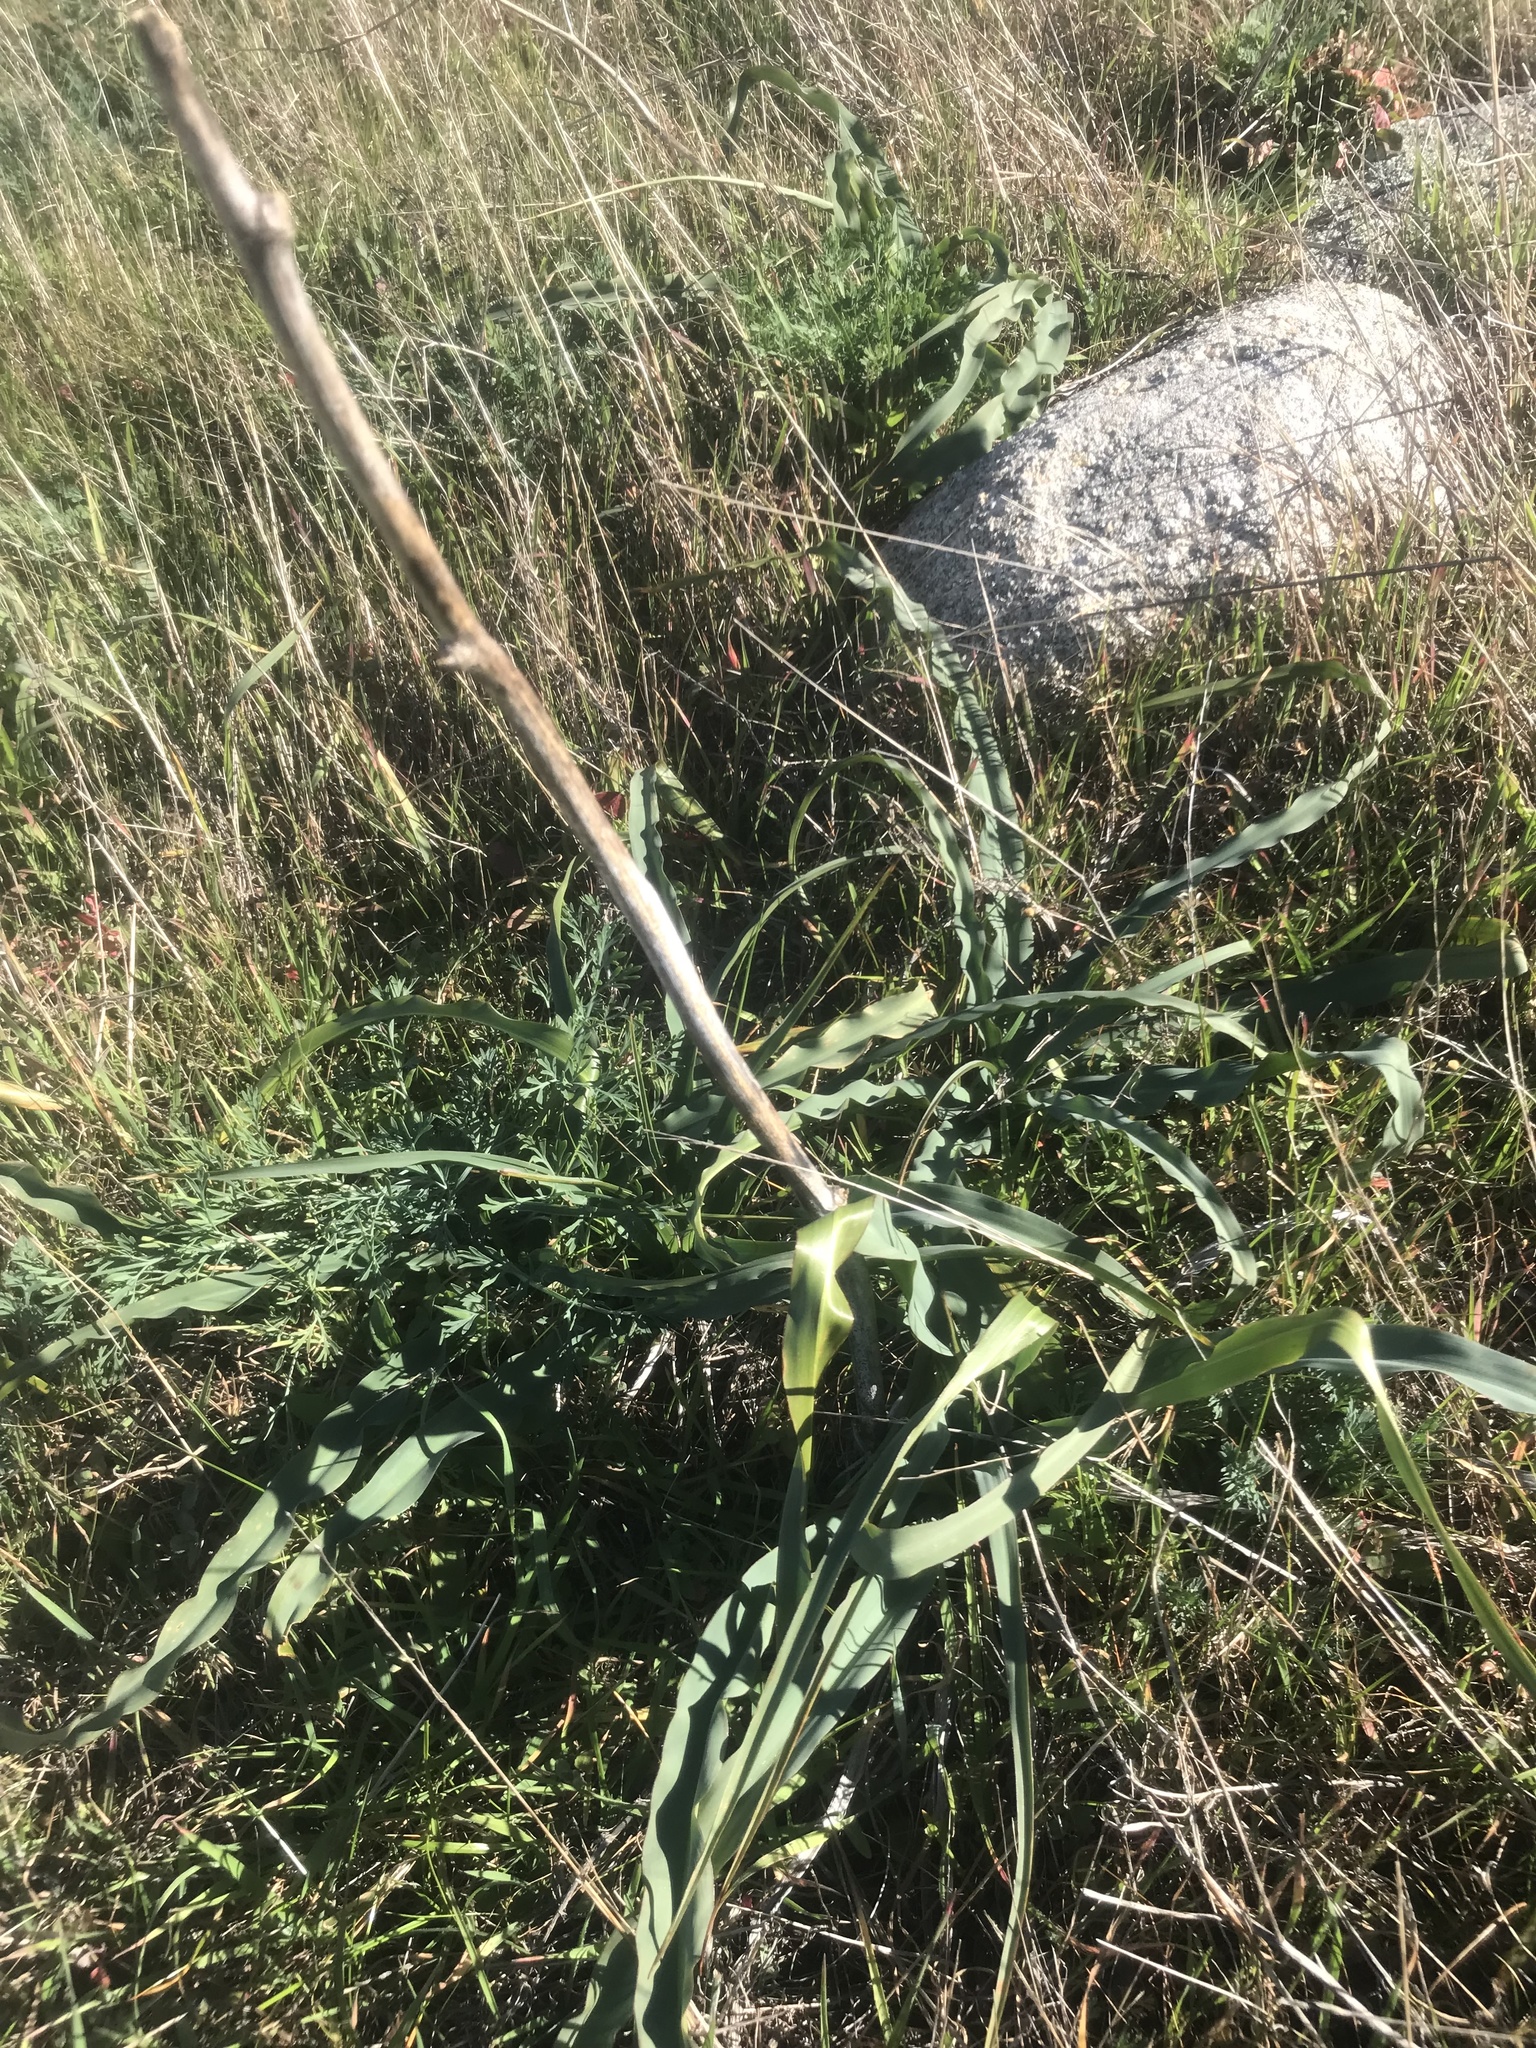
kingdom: Plantae
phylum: Tracheophyta
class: Liliopsida
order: Asparagales
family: Asparagaceae
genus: Chlorogalum
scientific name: Chlorogalum pomeridianum
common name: Amole
